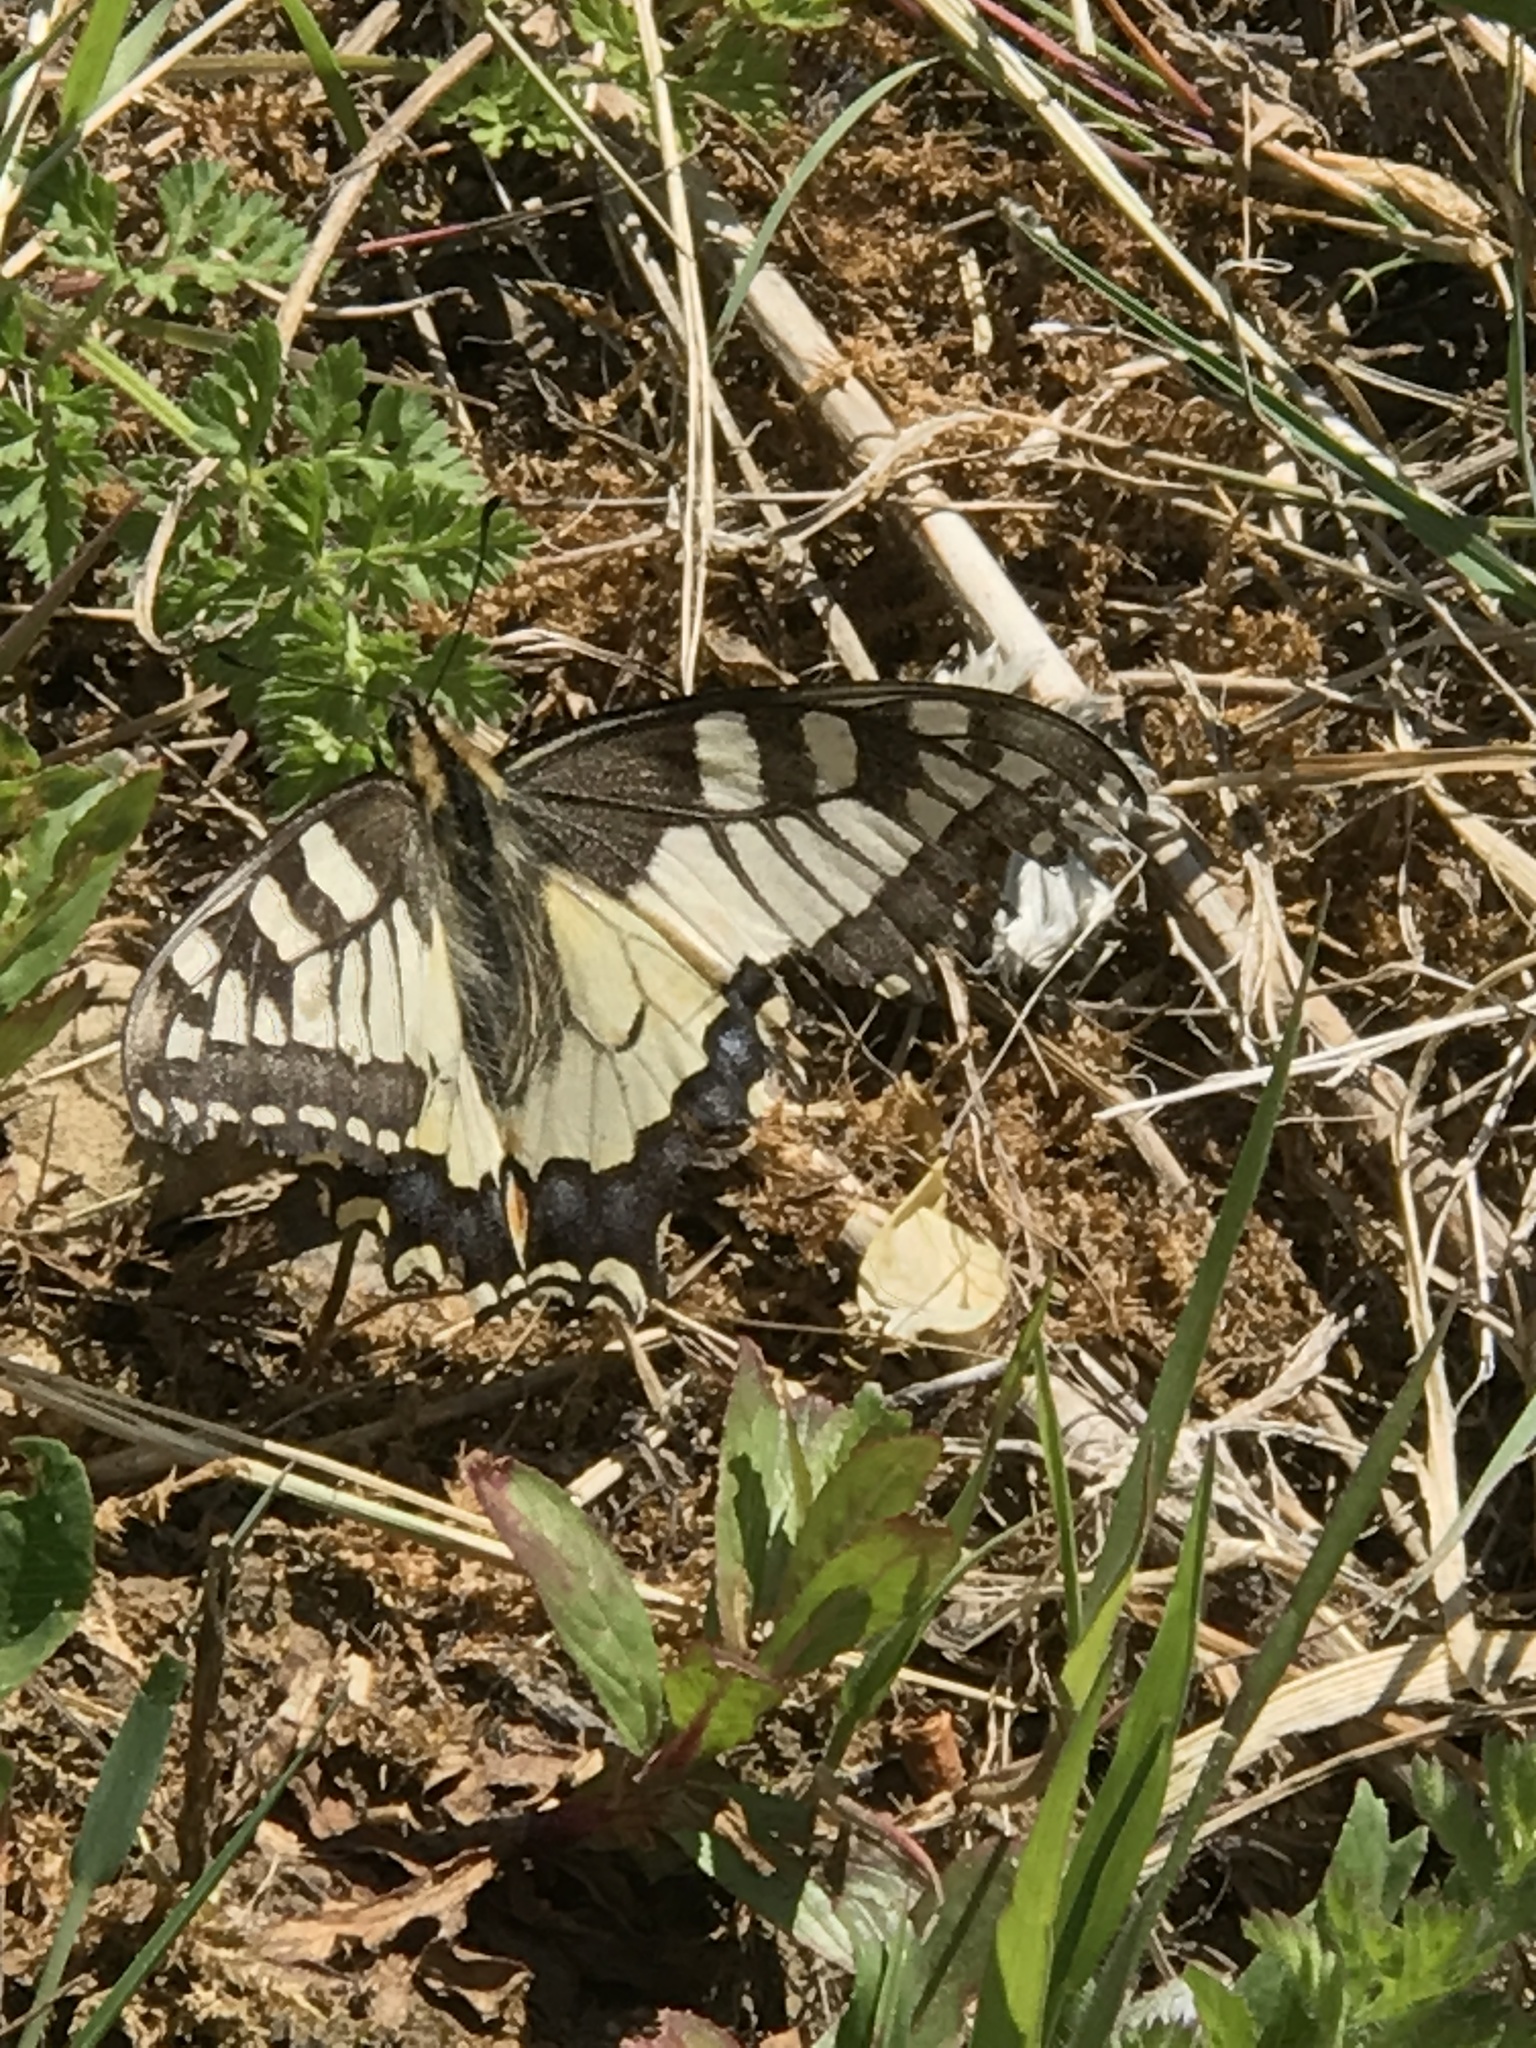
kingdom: Animalia
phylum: Arthropoda
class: Insecta
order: Lepidoptera
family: Papilionidae
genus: Papilio
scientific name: Papilio machaon
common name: Swallowtail
